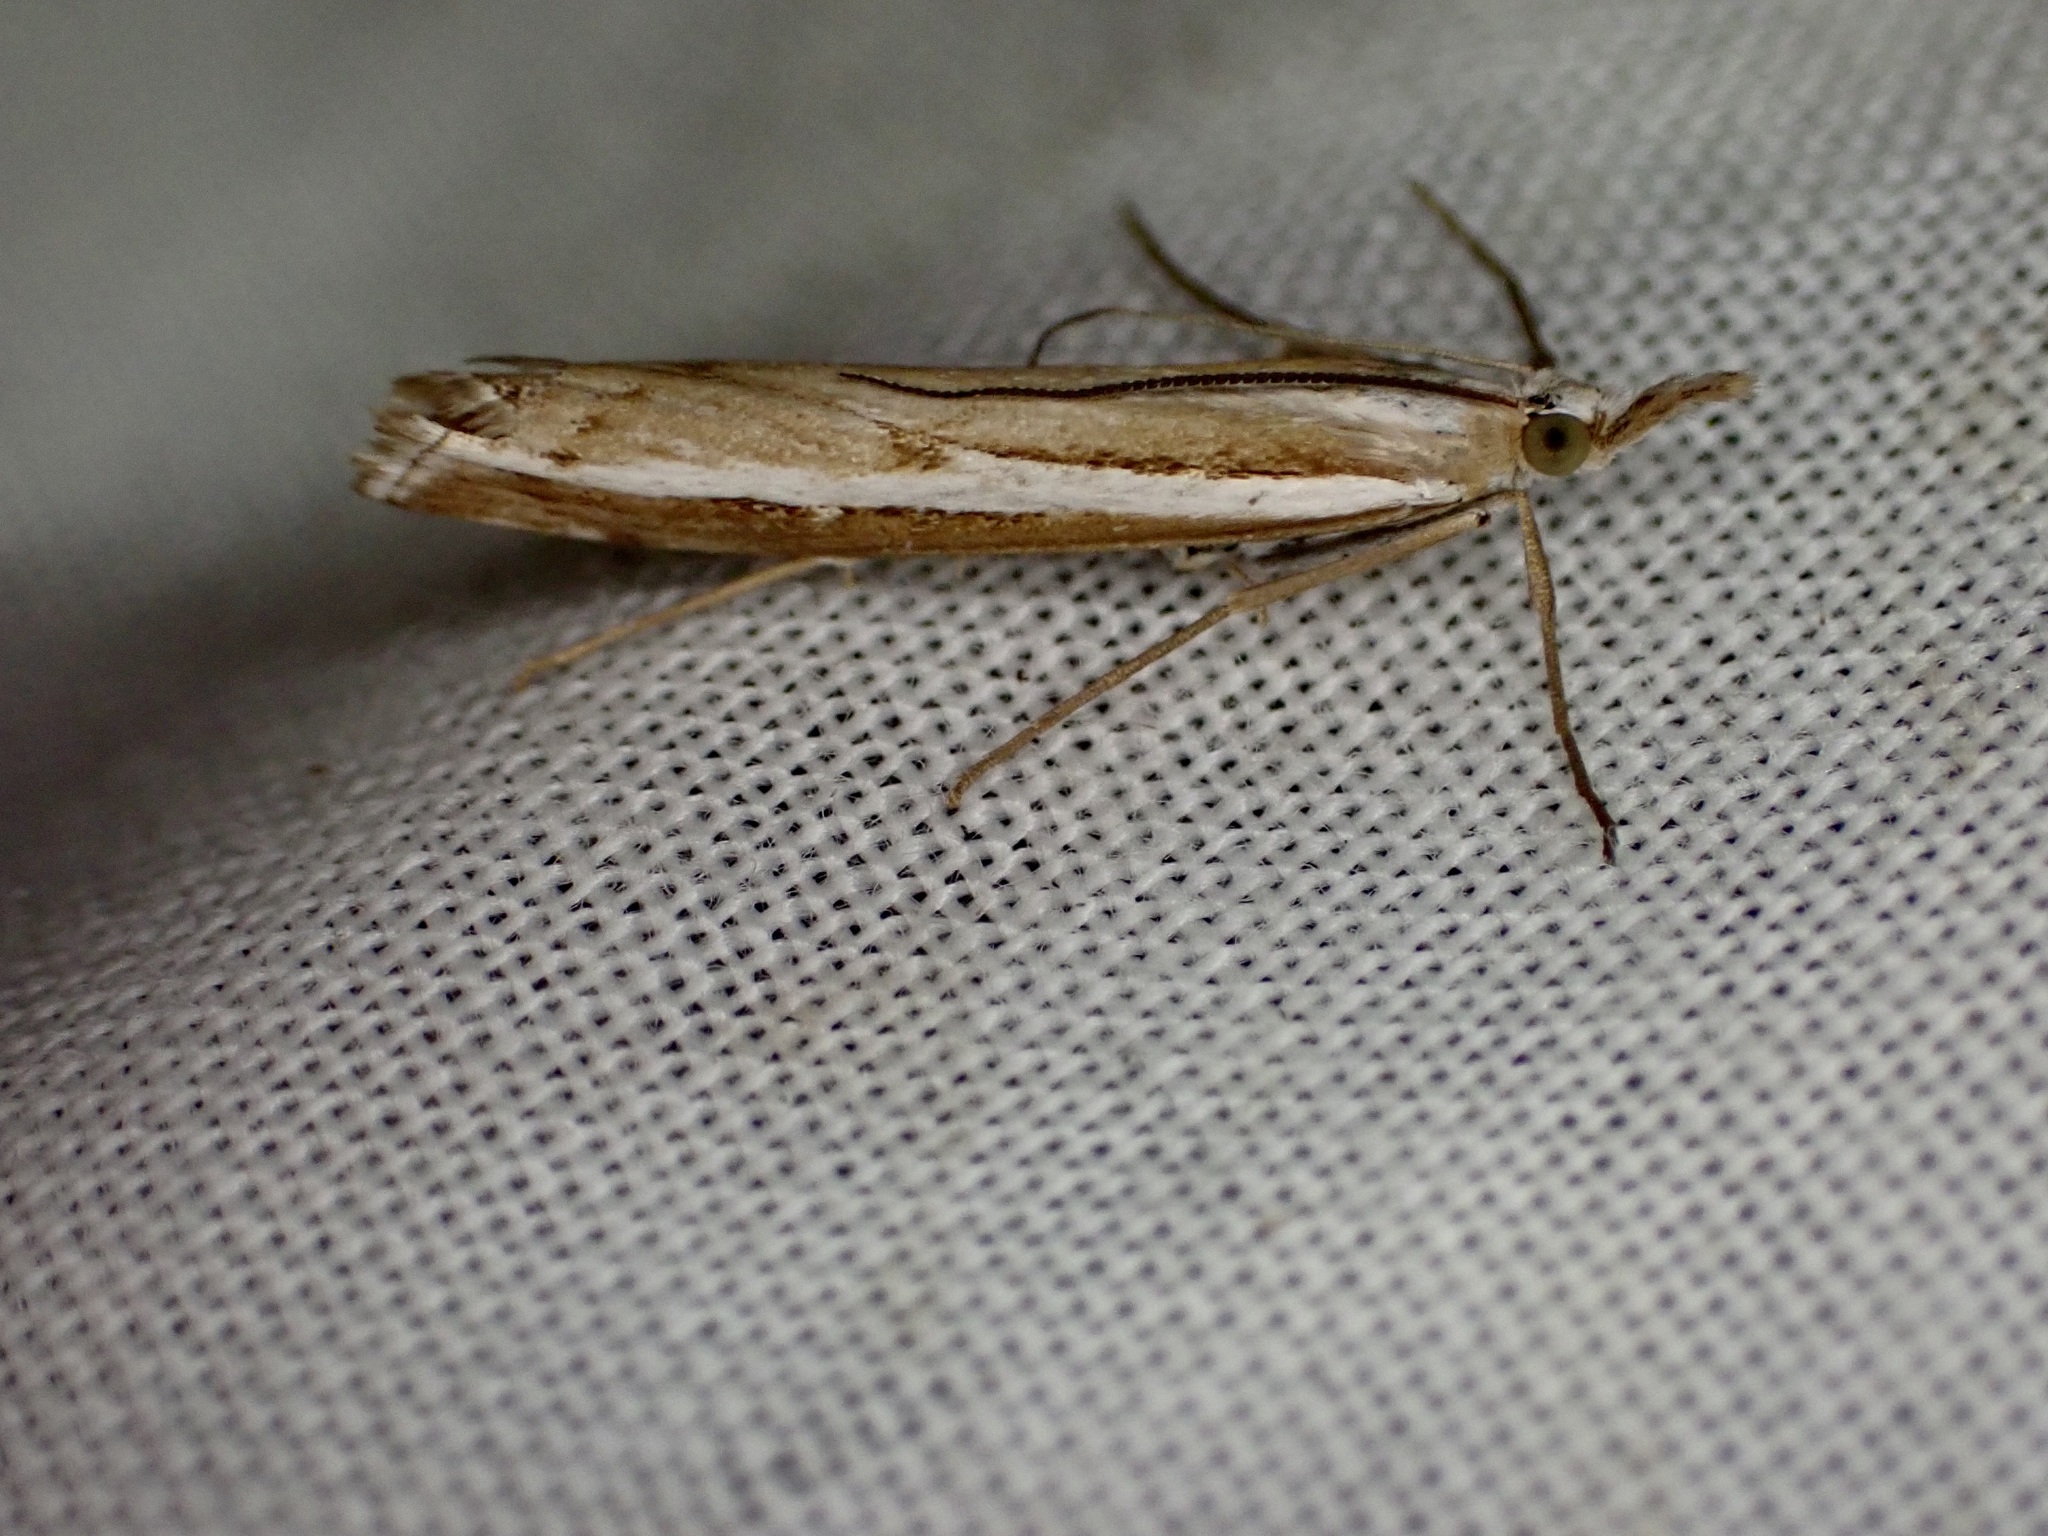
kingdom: Animalia
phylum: Arthropoda
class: Insecta
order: Lepidoptera
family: Crambidae
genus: Orocrambus
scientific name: Orocrambus vittellus
